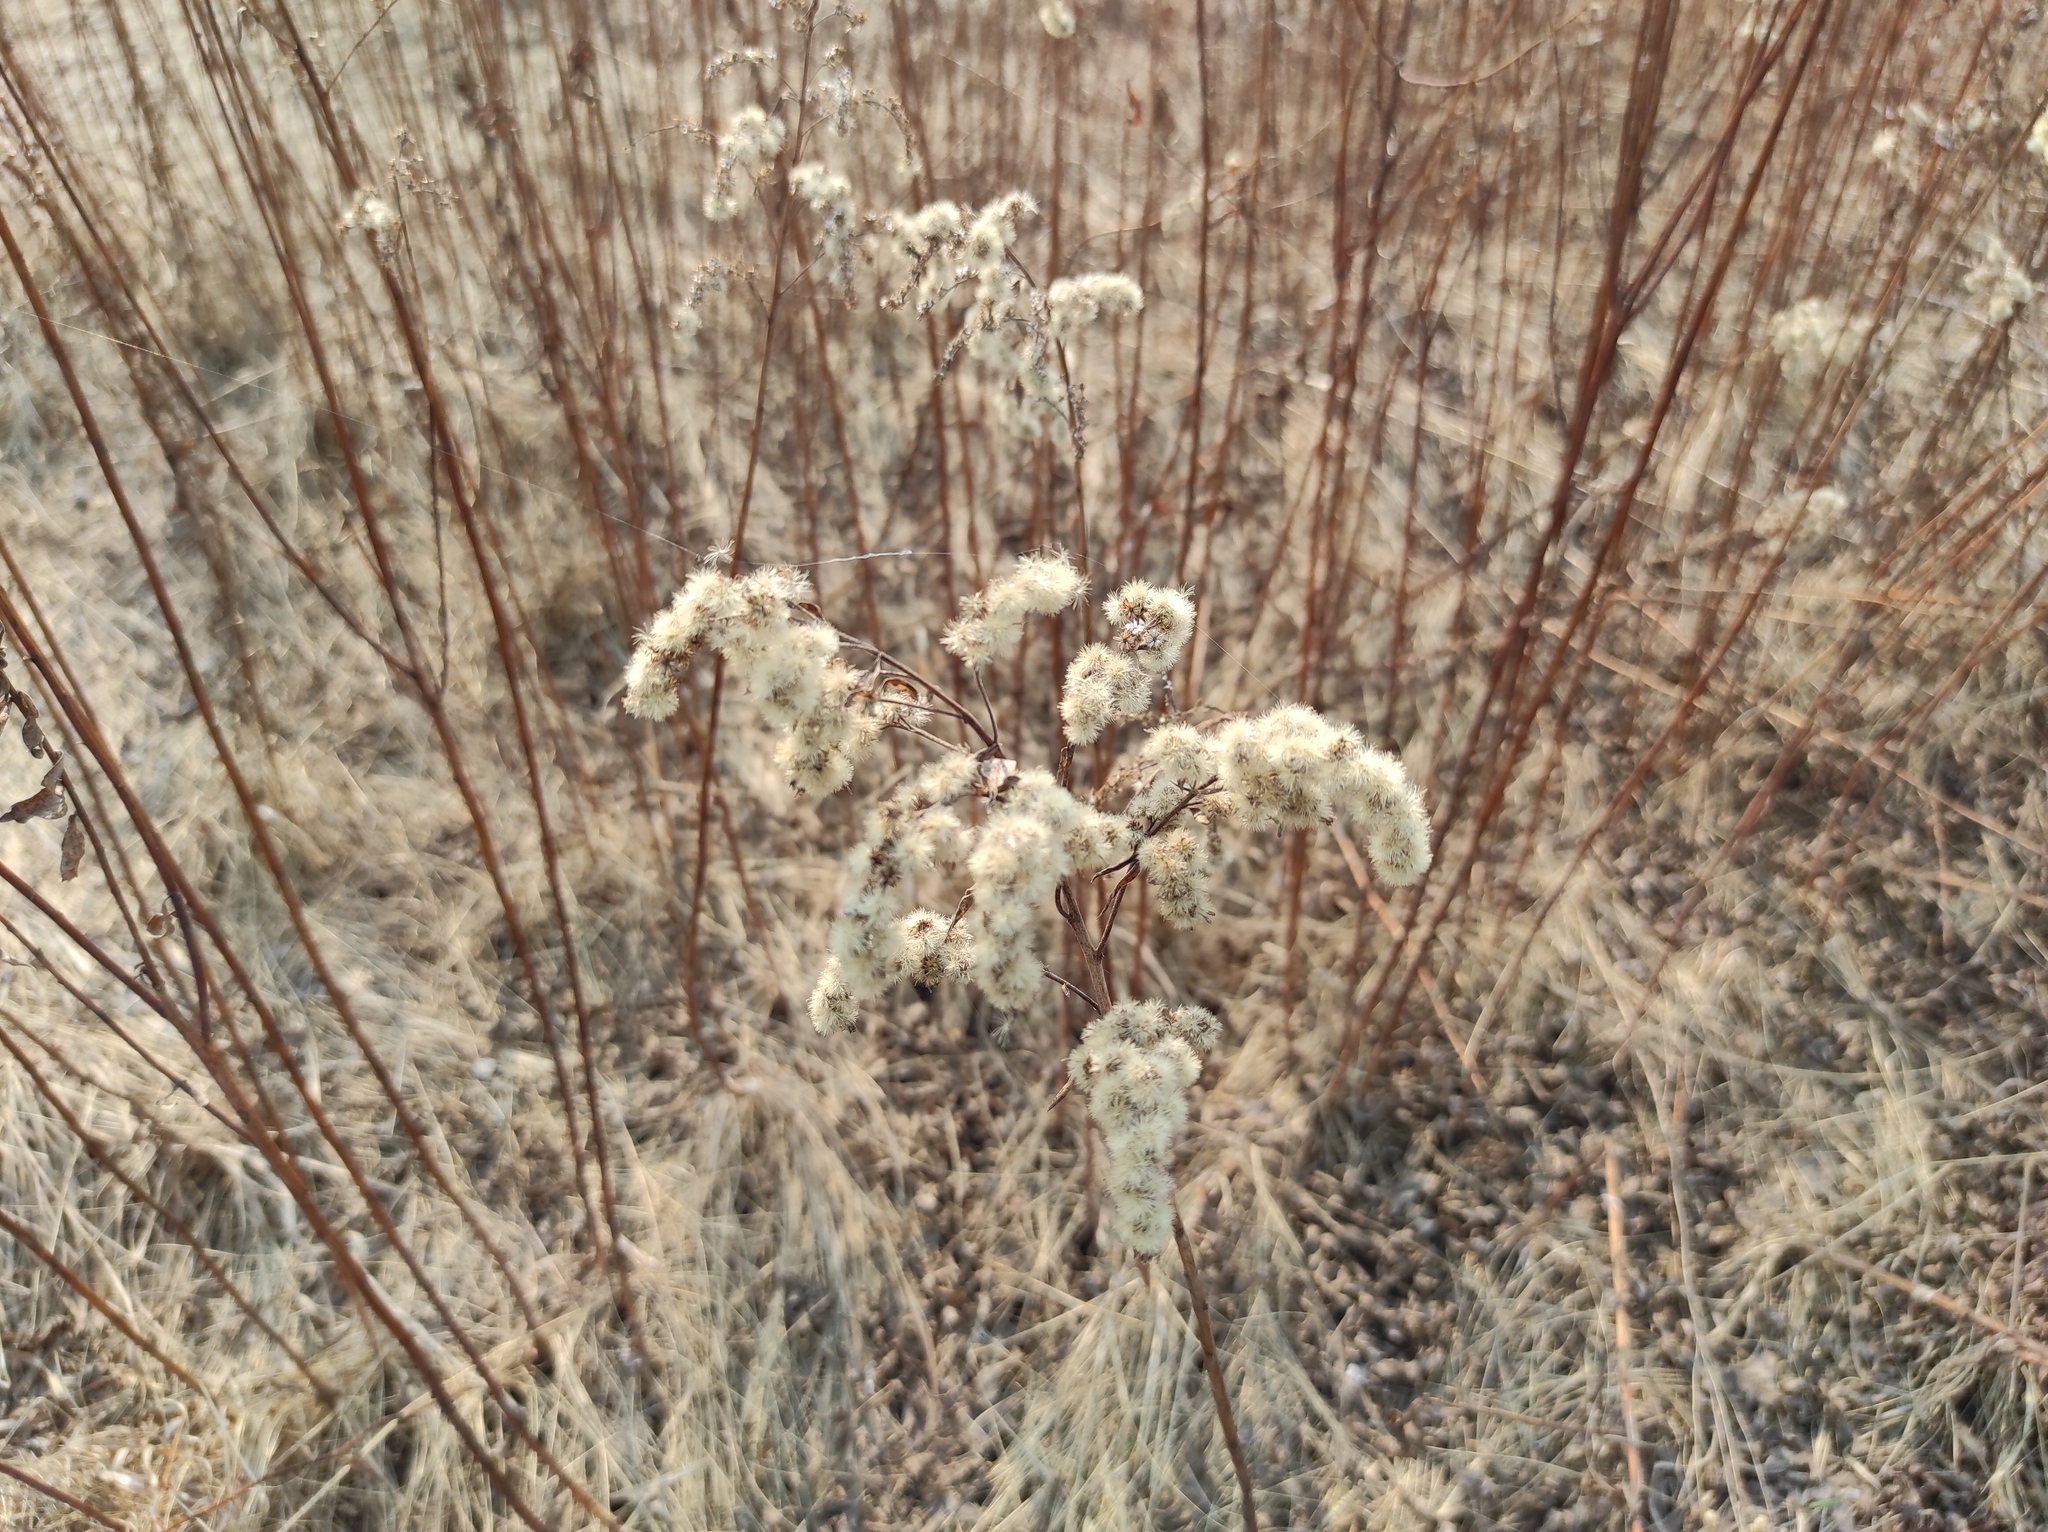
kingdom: Plantae
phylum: Tracheophyta
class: Magnoliopsida
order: Asterales
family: Asteraceae
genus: Solidago
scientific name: Solidago gigantea
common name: Giant goldenrod
